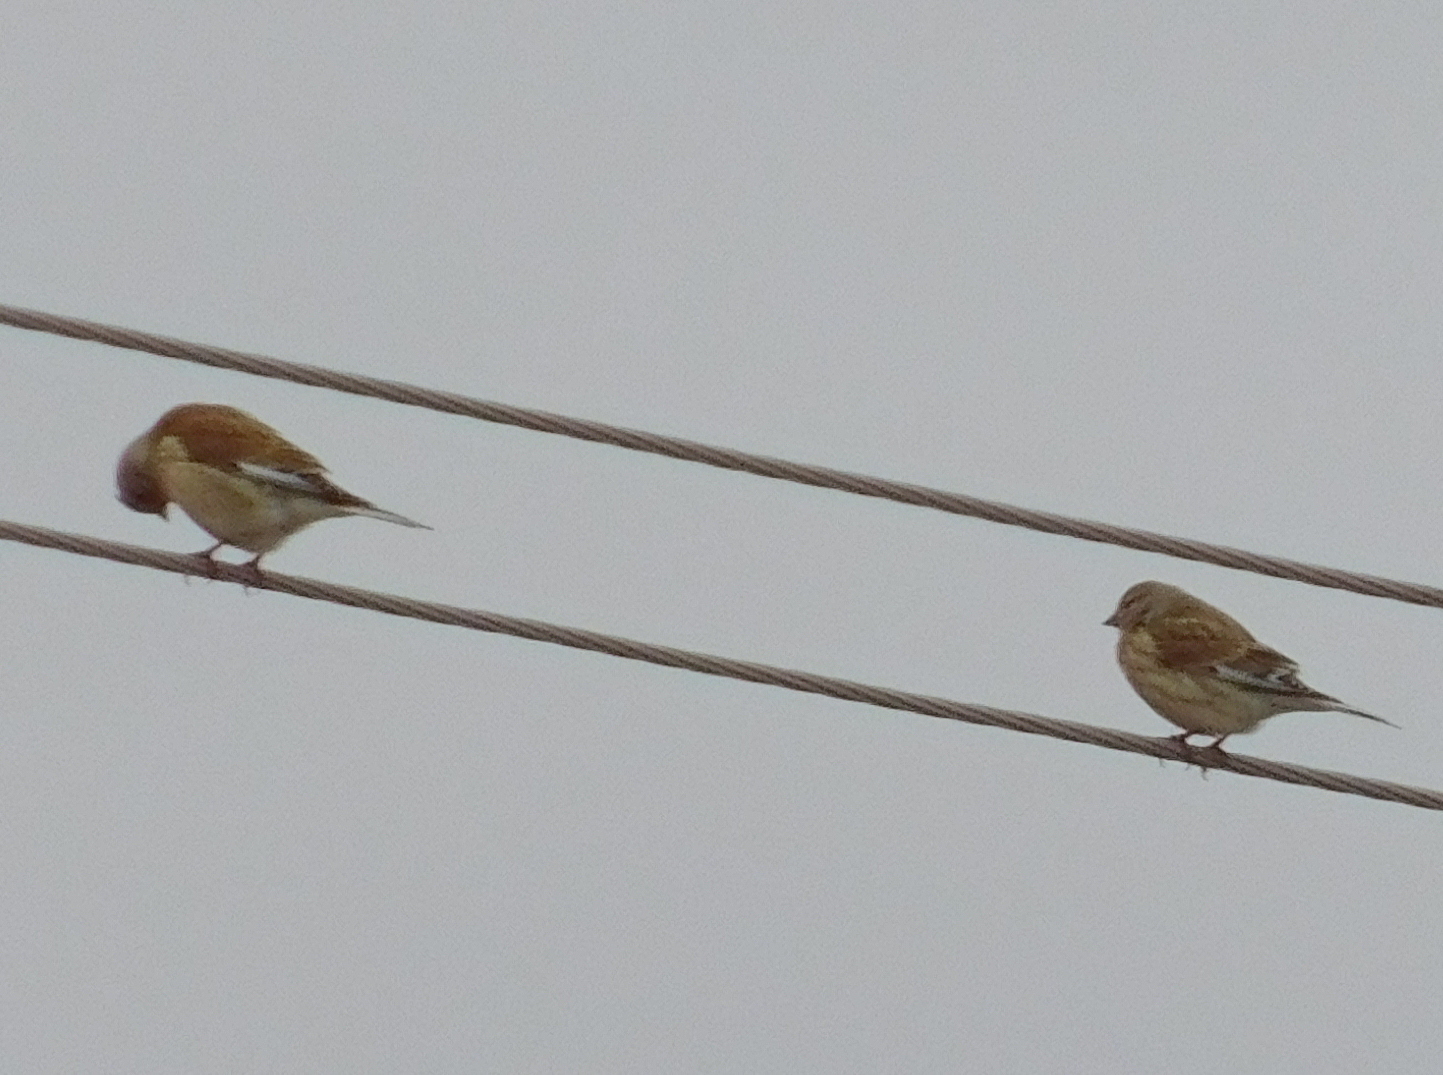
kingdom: Animalia
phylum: Chordata
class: Aves
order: Passeriformes
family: Fringillidae
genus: Linaria
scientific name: Linaria cannabina
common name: Common linnet
